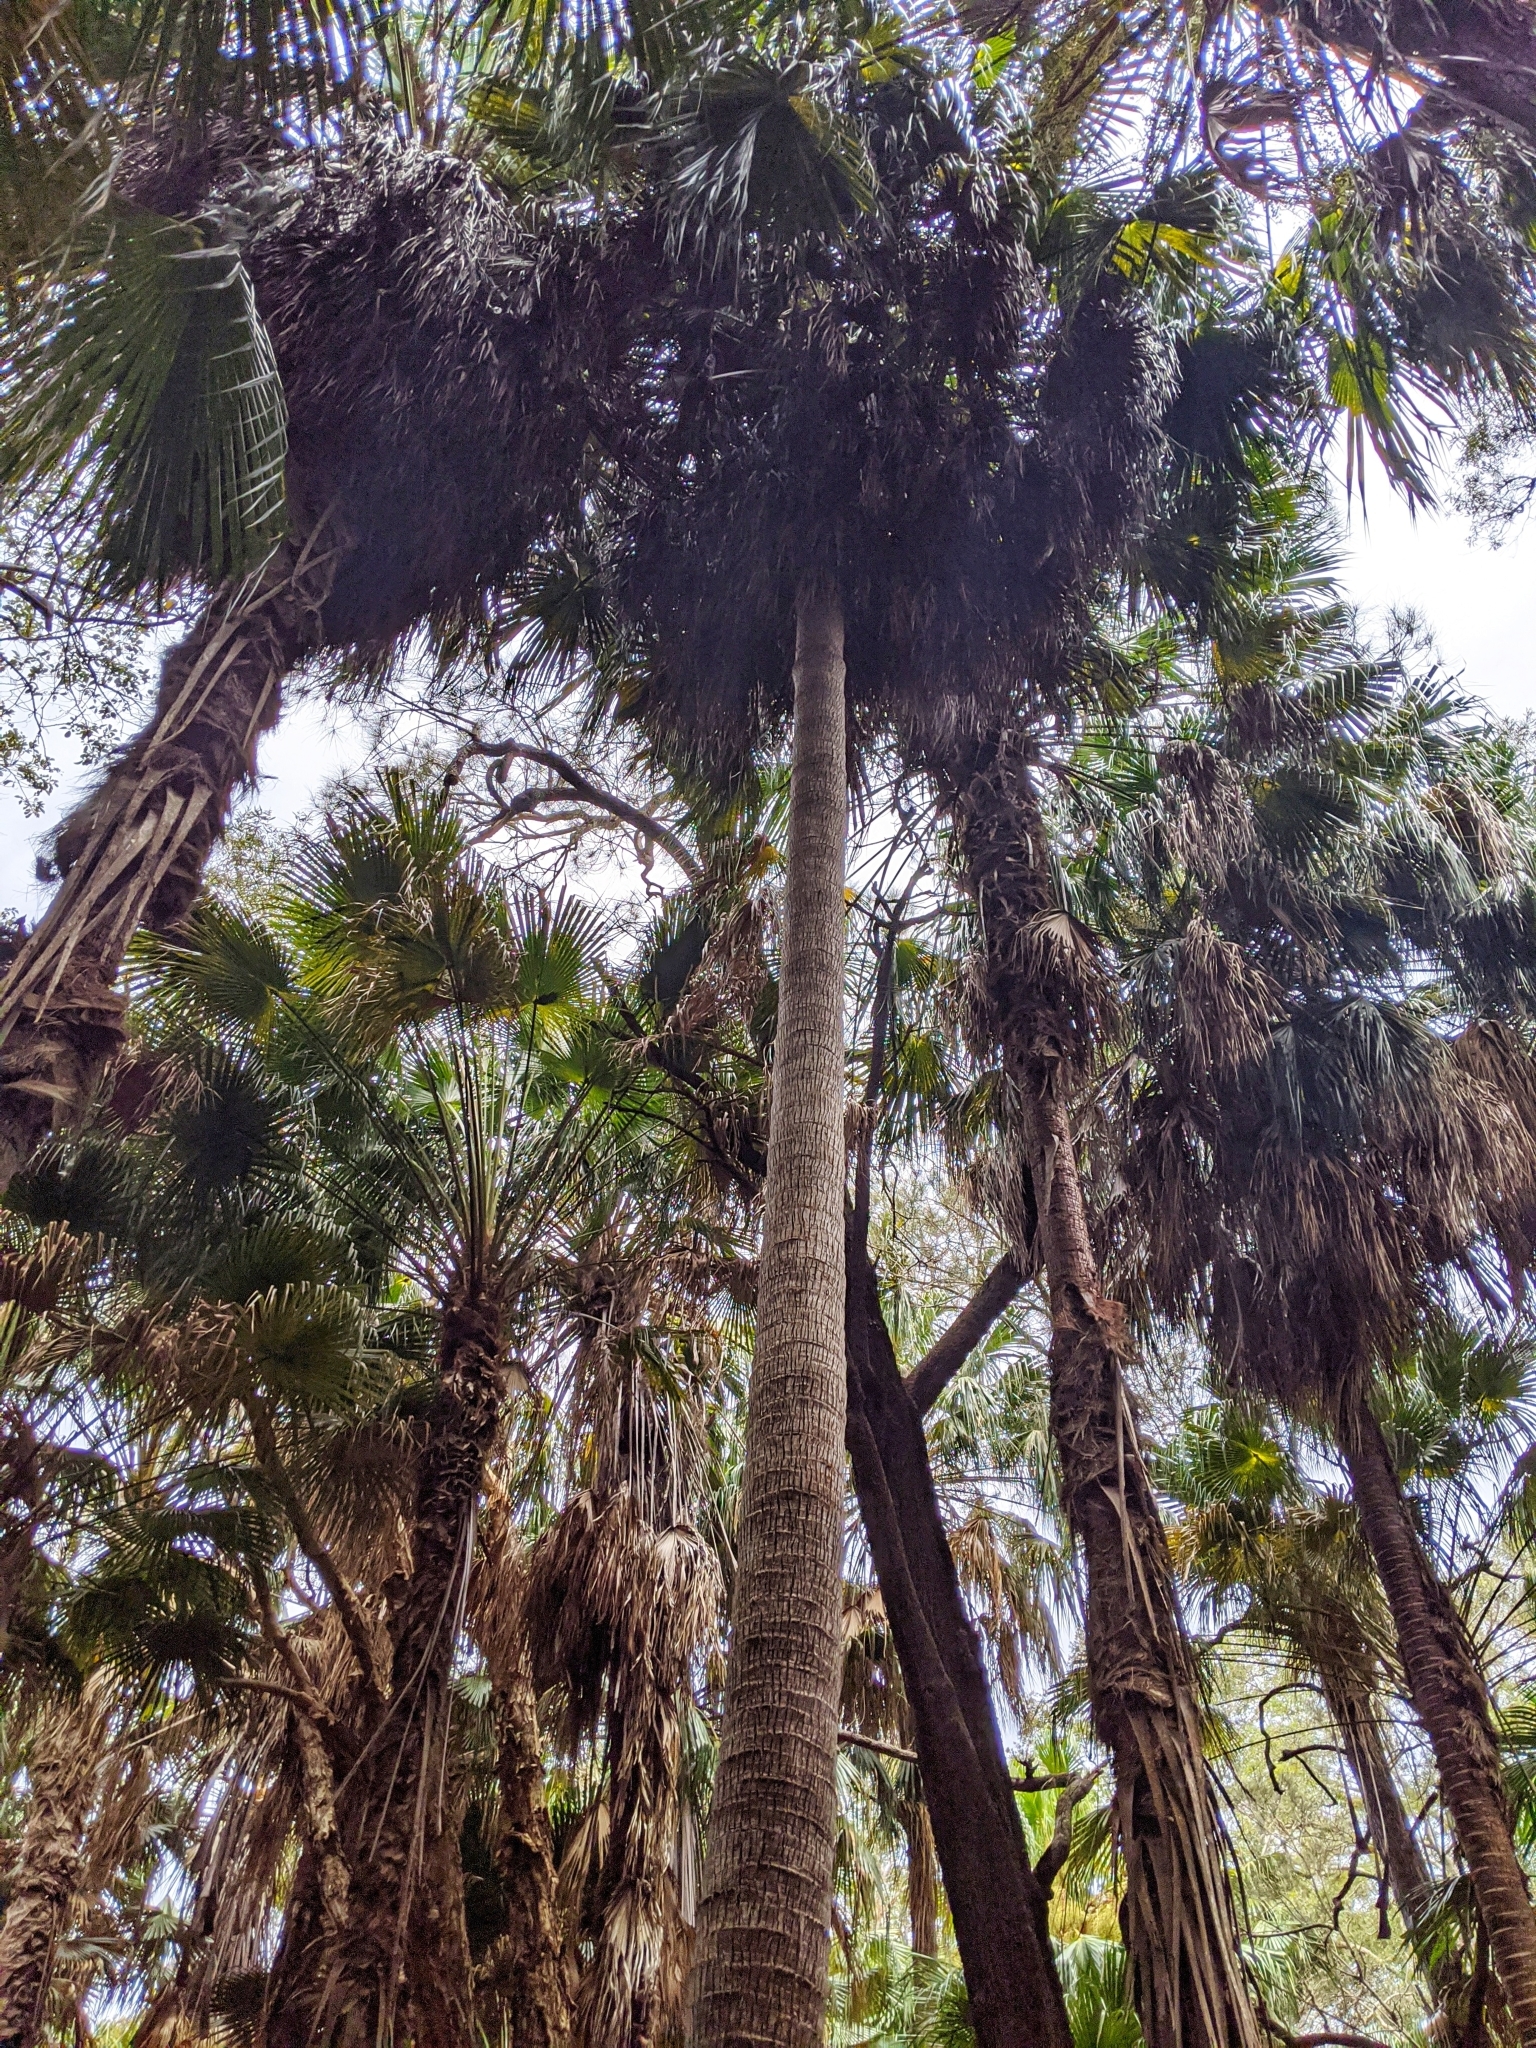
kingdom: Plantae
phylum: Tracheophyta
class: Liliopsida
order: Arecales
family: Arecaceae
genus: Livistona
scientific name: Livistona australis
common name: Cabbage fan palm
